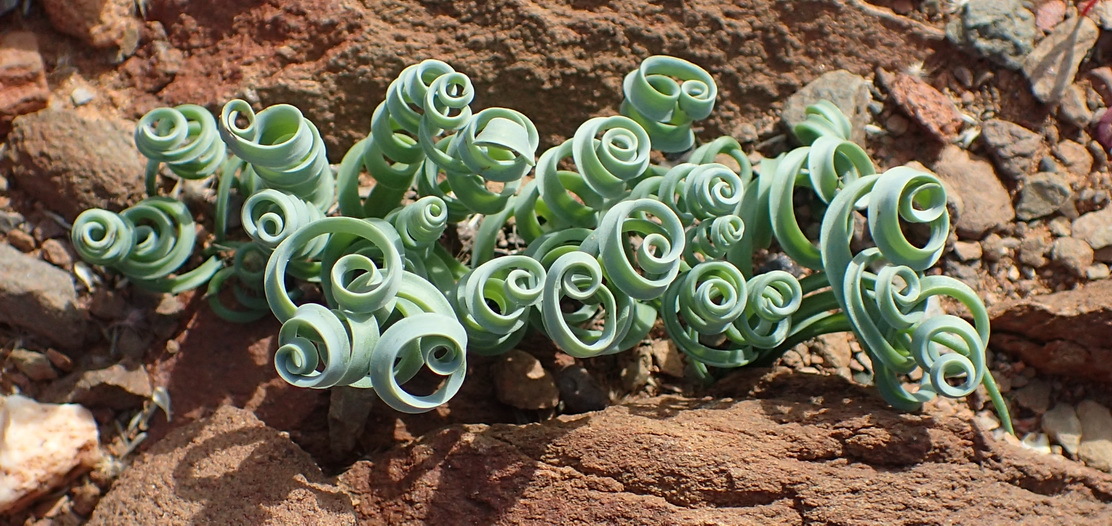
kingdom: Plantae
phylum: Tracheophyta
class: Liliopsida
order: Asparagales
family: Asparagaceae
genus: Albuca
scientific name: Albuca concordiana
